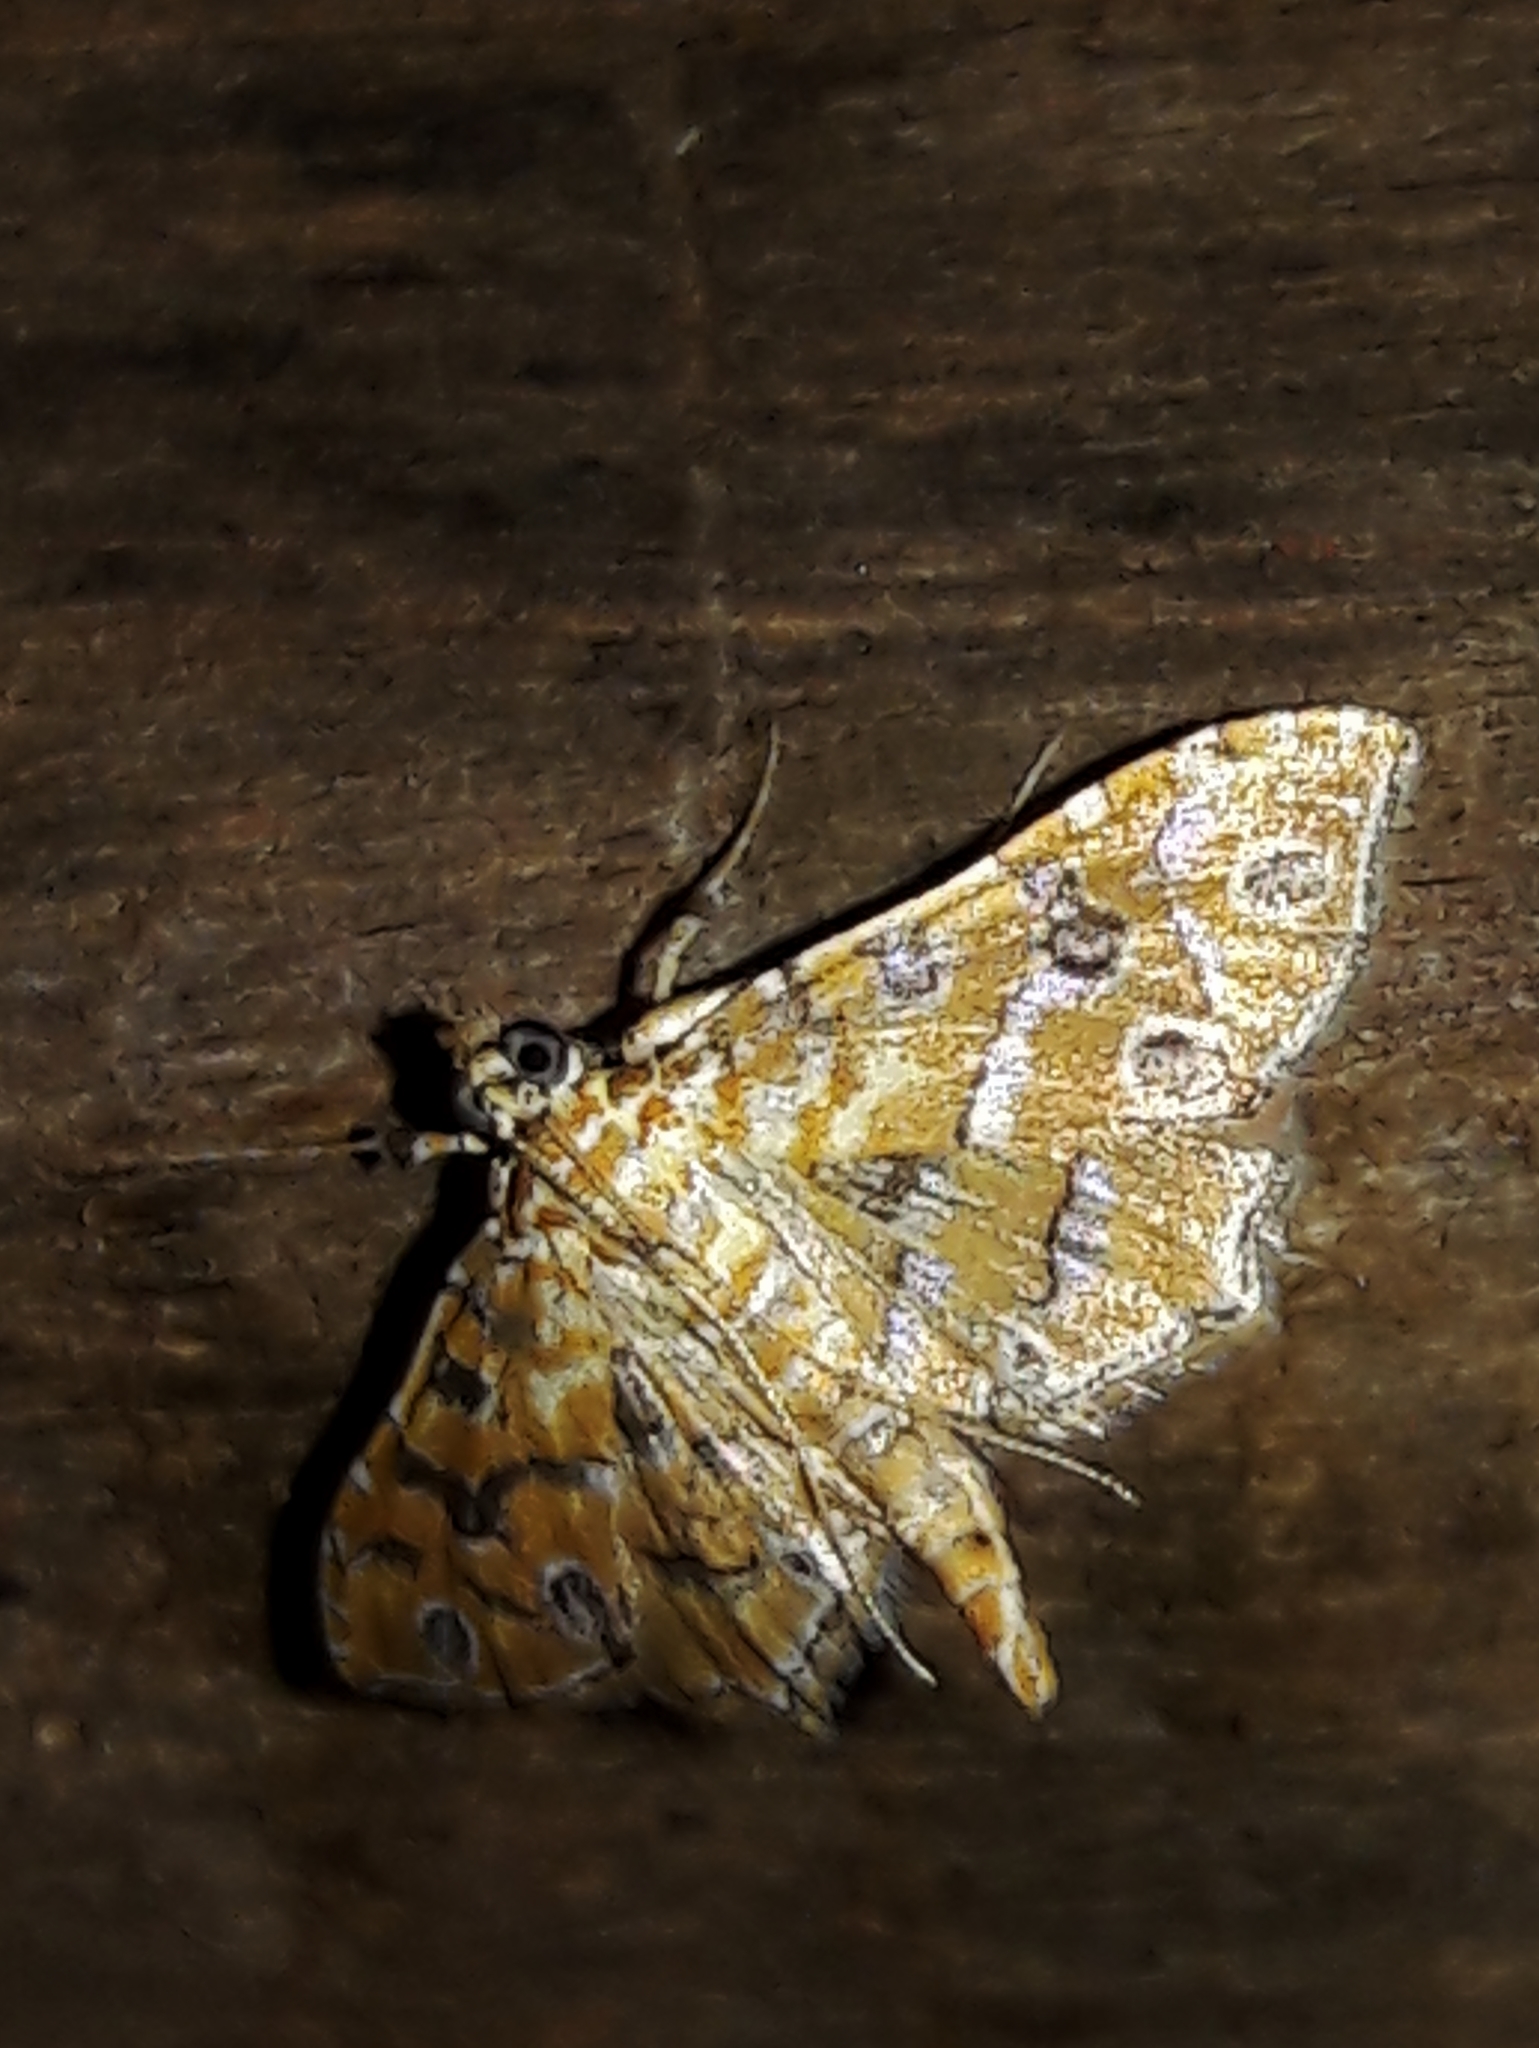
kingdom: Animalia
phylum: Arthropoda
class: Insecta
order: Lepidoptera
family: Crambidae
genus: Ommatospila
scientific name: Ommatospila narcaeusalis
